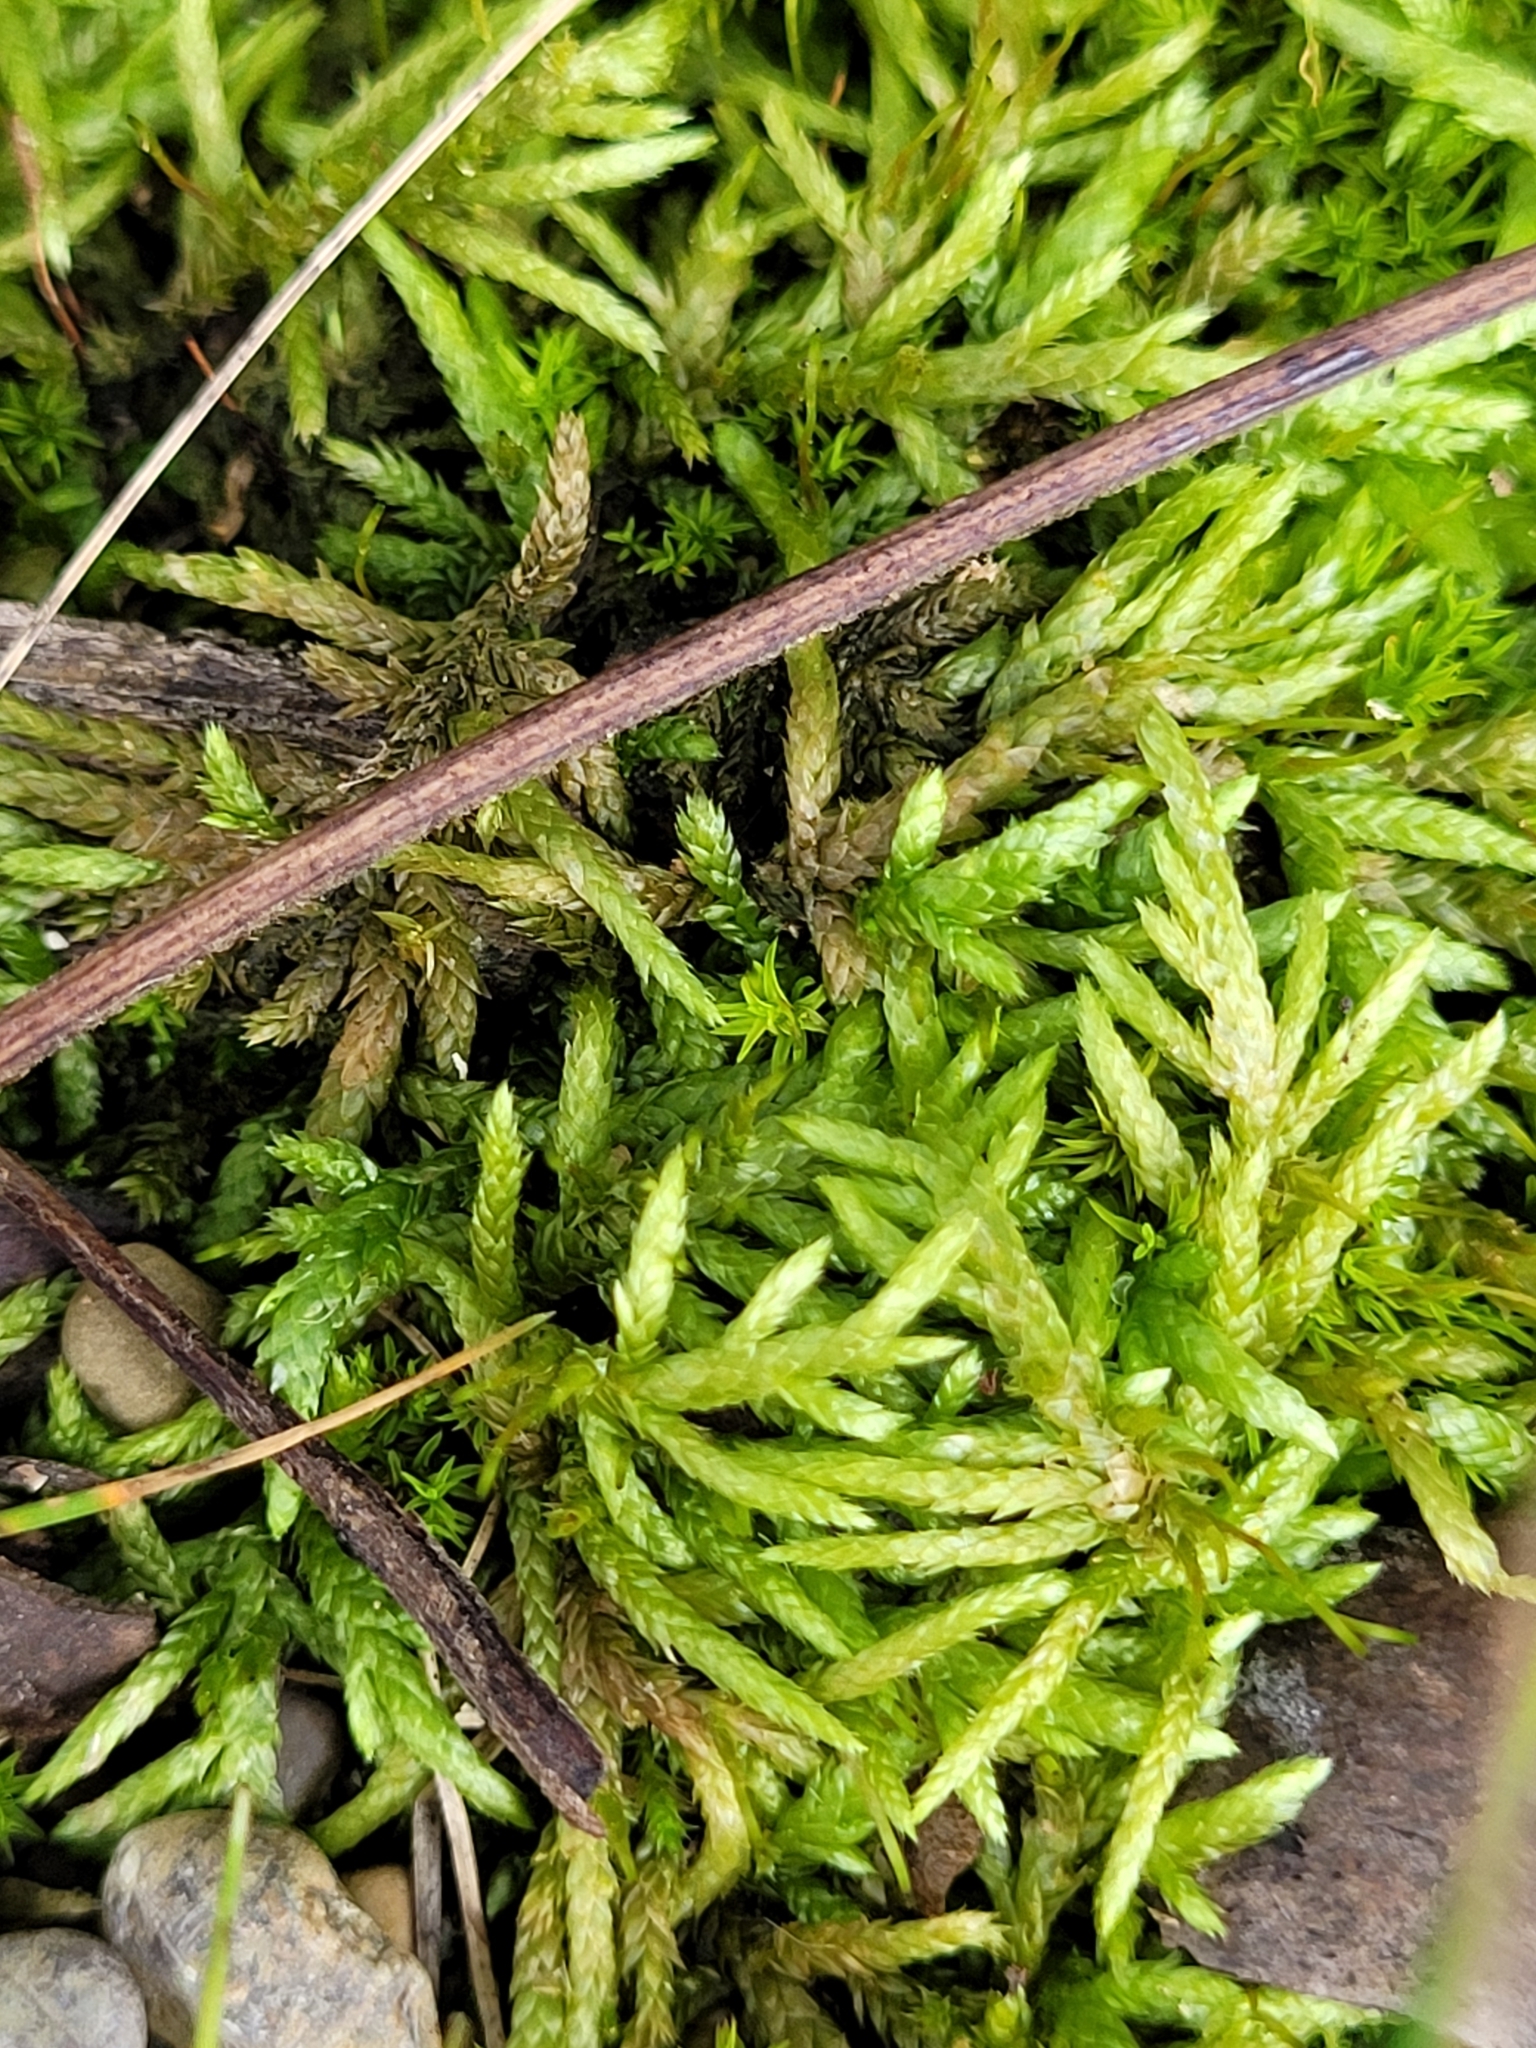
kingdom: Plantae
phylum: Bryophyta
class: Bryopsida
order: Hypnales
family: Entodontaceae
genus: Entodon
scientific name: Entodon seductrix
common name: Round-stemmed entodon moss
